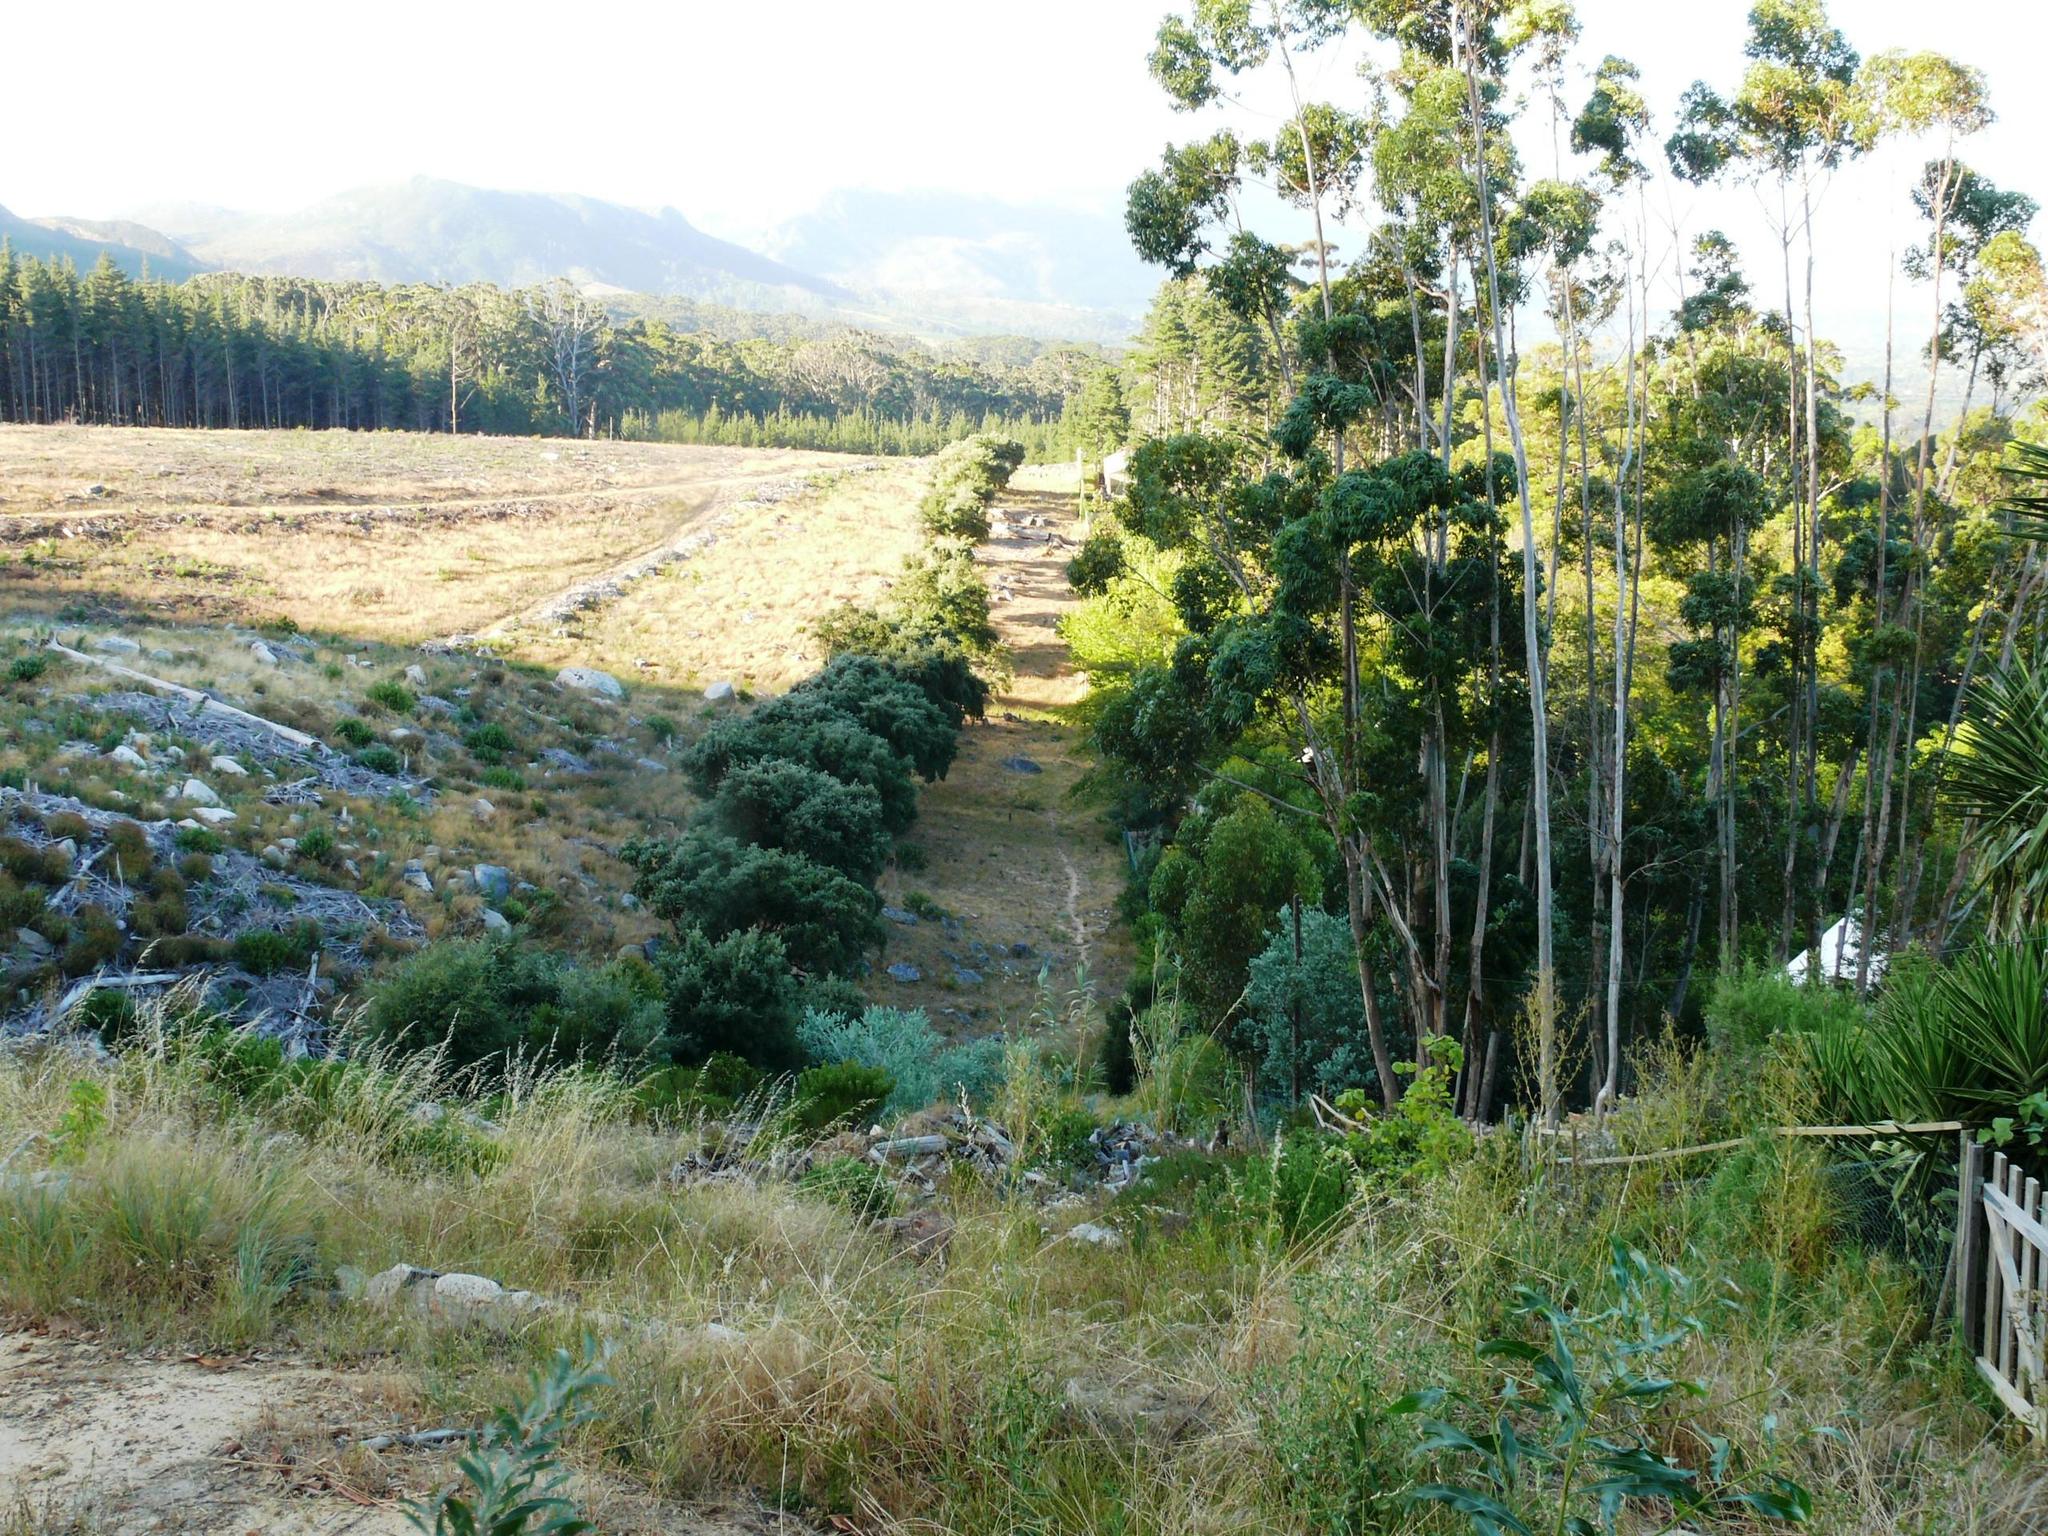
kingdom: Plantae
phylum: Tracheophyta
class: Magnoliopsida
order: Fagales
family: Fagaceae
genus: Quercus
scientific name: Quercus suber
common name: Cork oak
